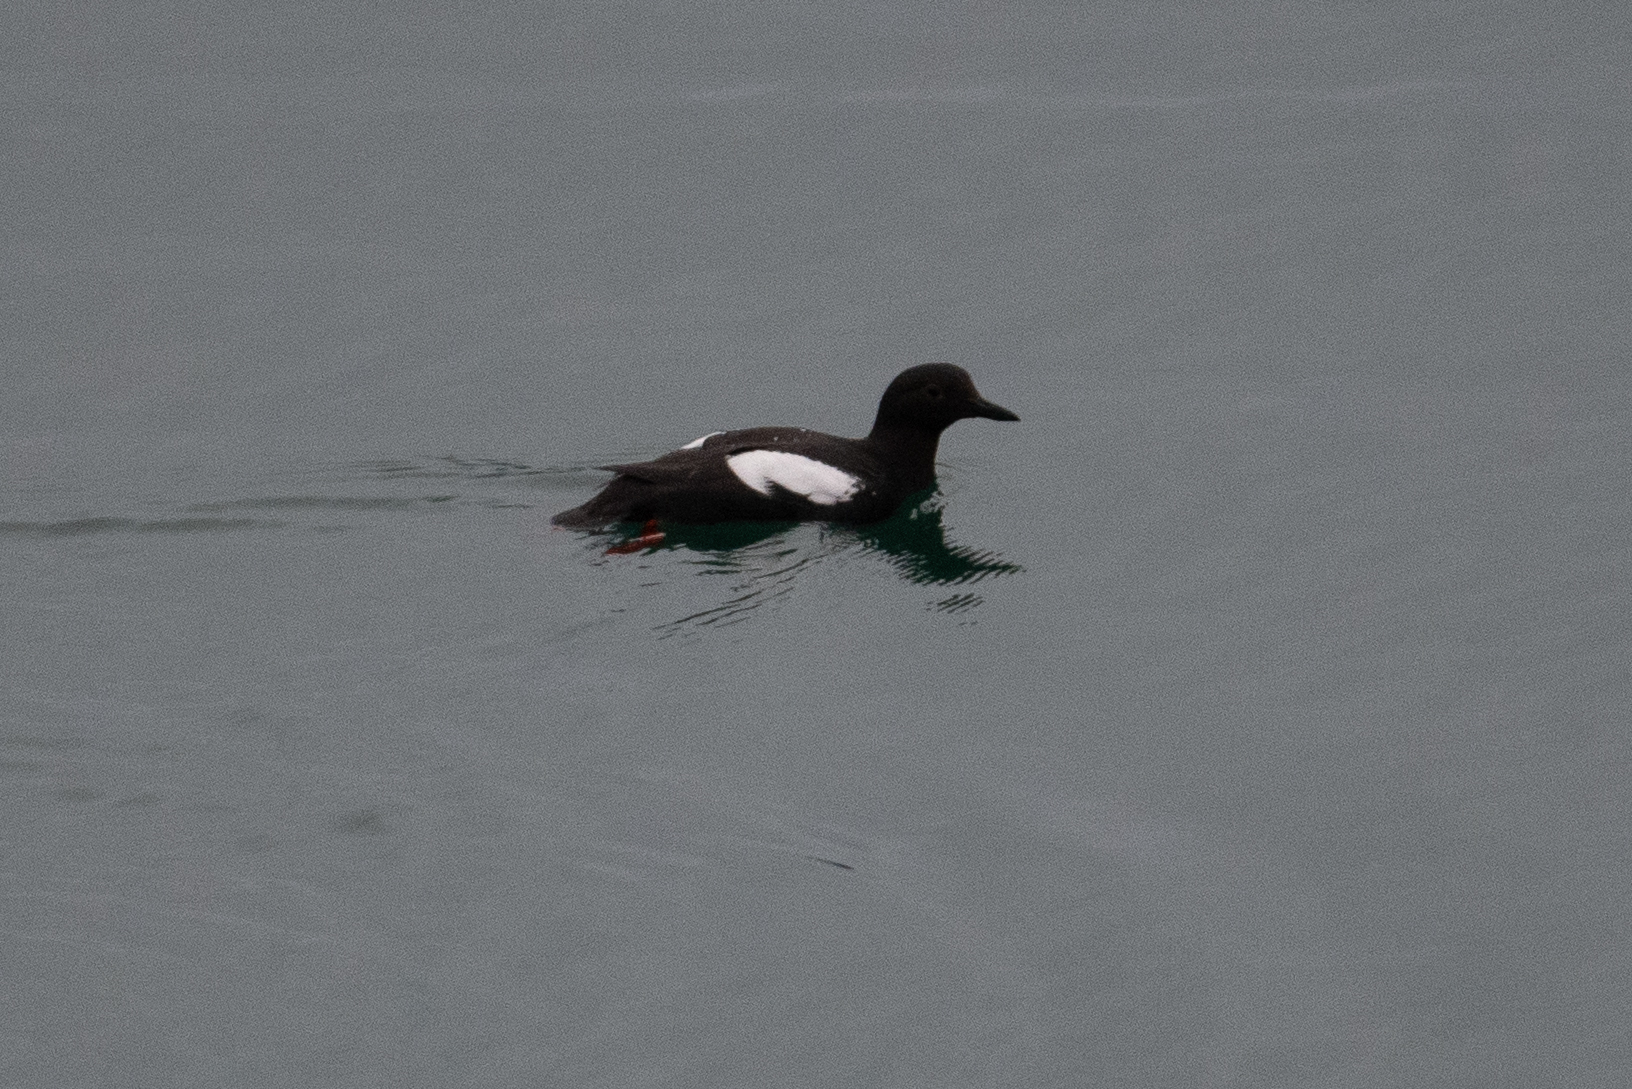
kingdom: Animalia
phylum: Chordata
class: Aves
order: Charadriiformes
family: Alcidae
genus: Cepphus
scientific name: Cepphus columba
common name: Pigeon guillemot
